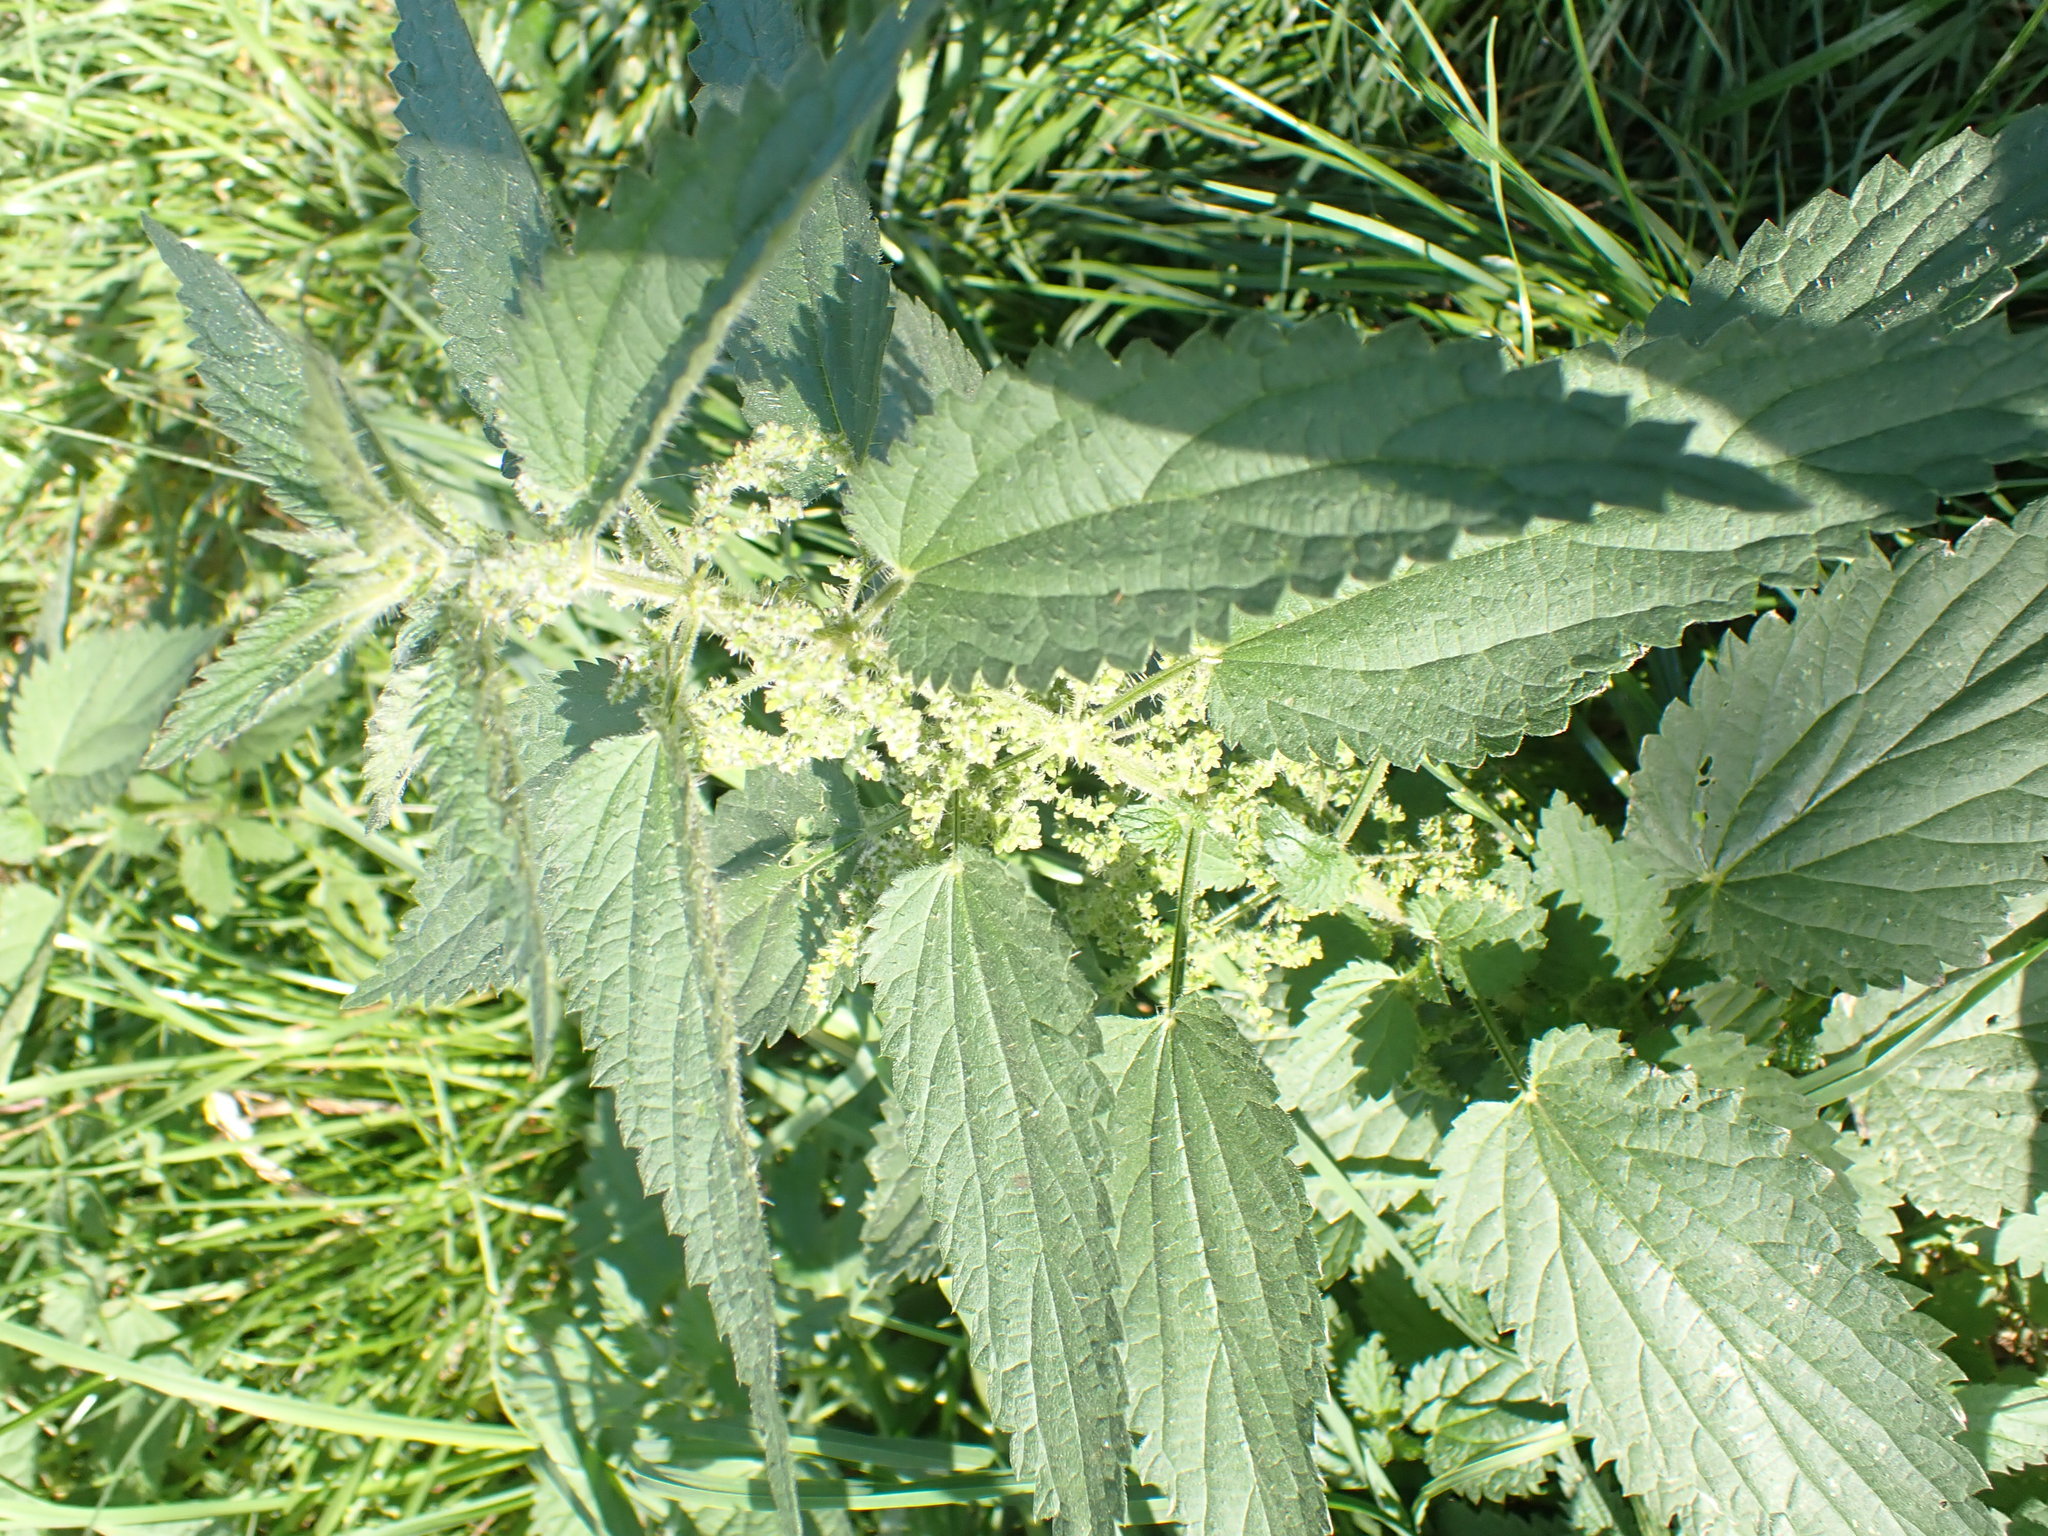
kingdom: Plantae
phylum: Tracheophyta
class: Magnoliopsida
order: Rosales
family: Urticaceae
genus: Urtica
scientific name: Urtica dioica
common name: Common nettle
